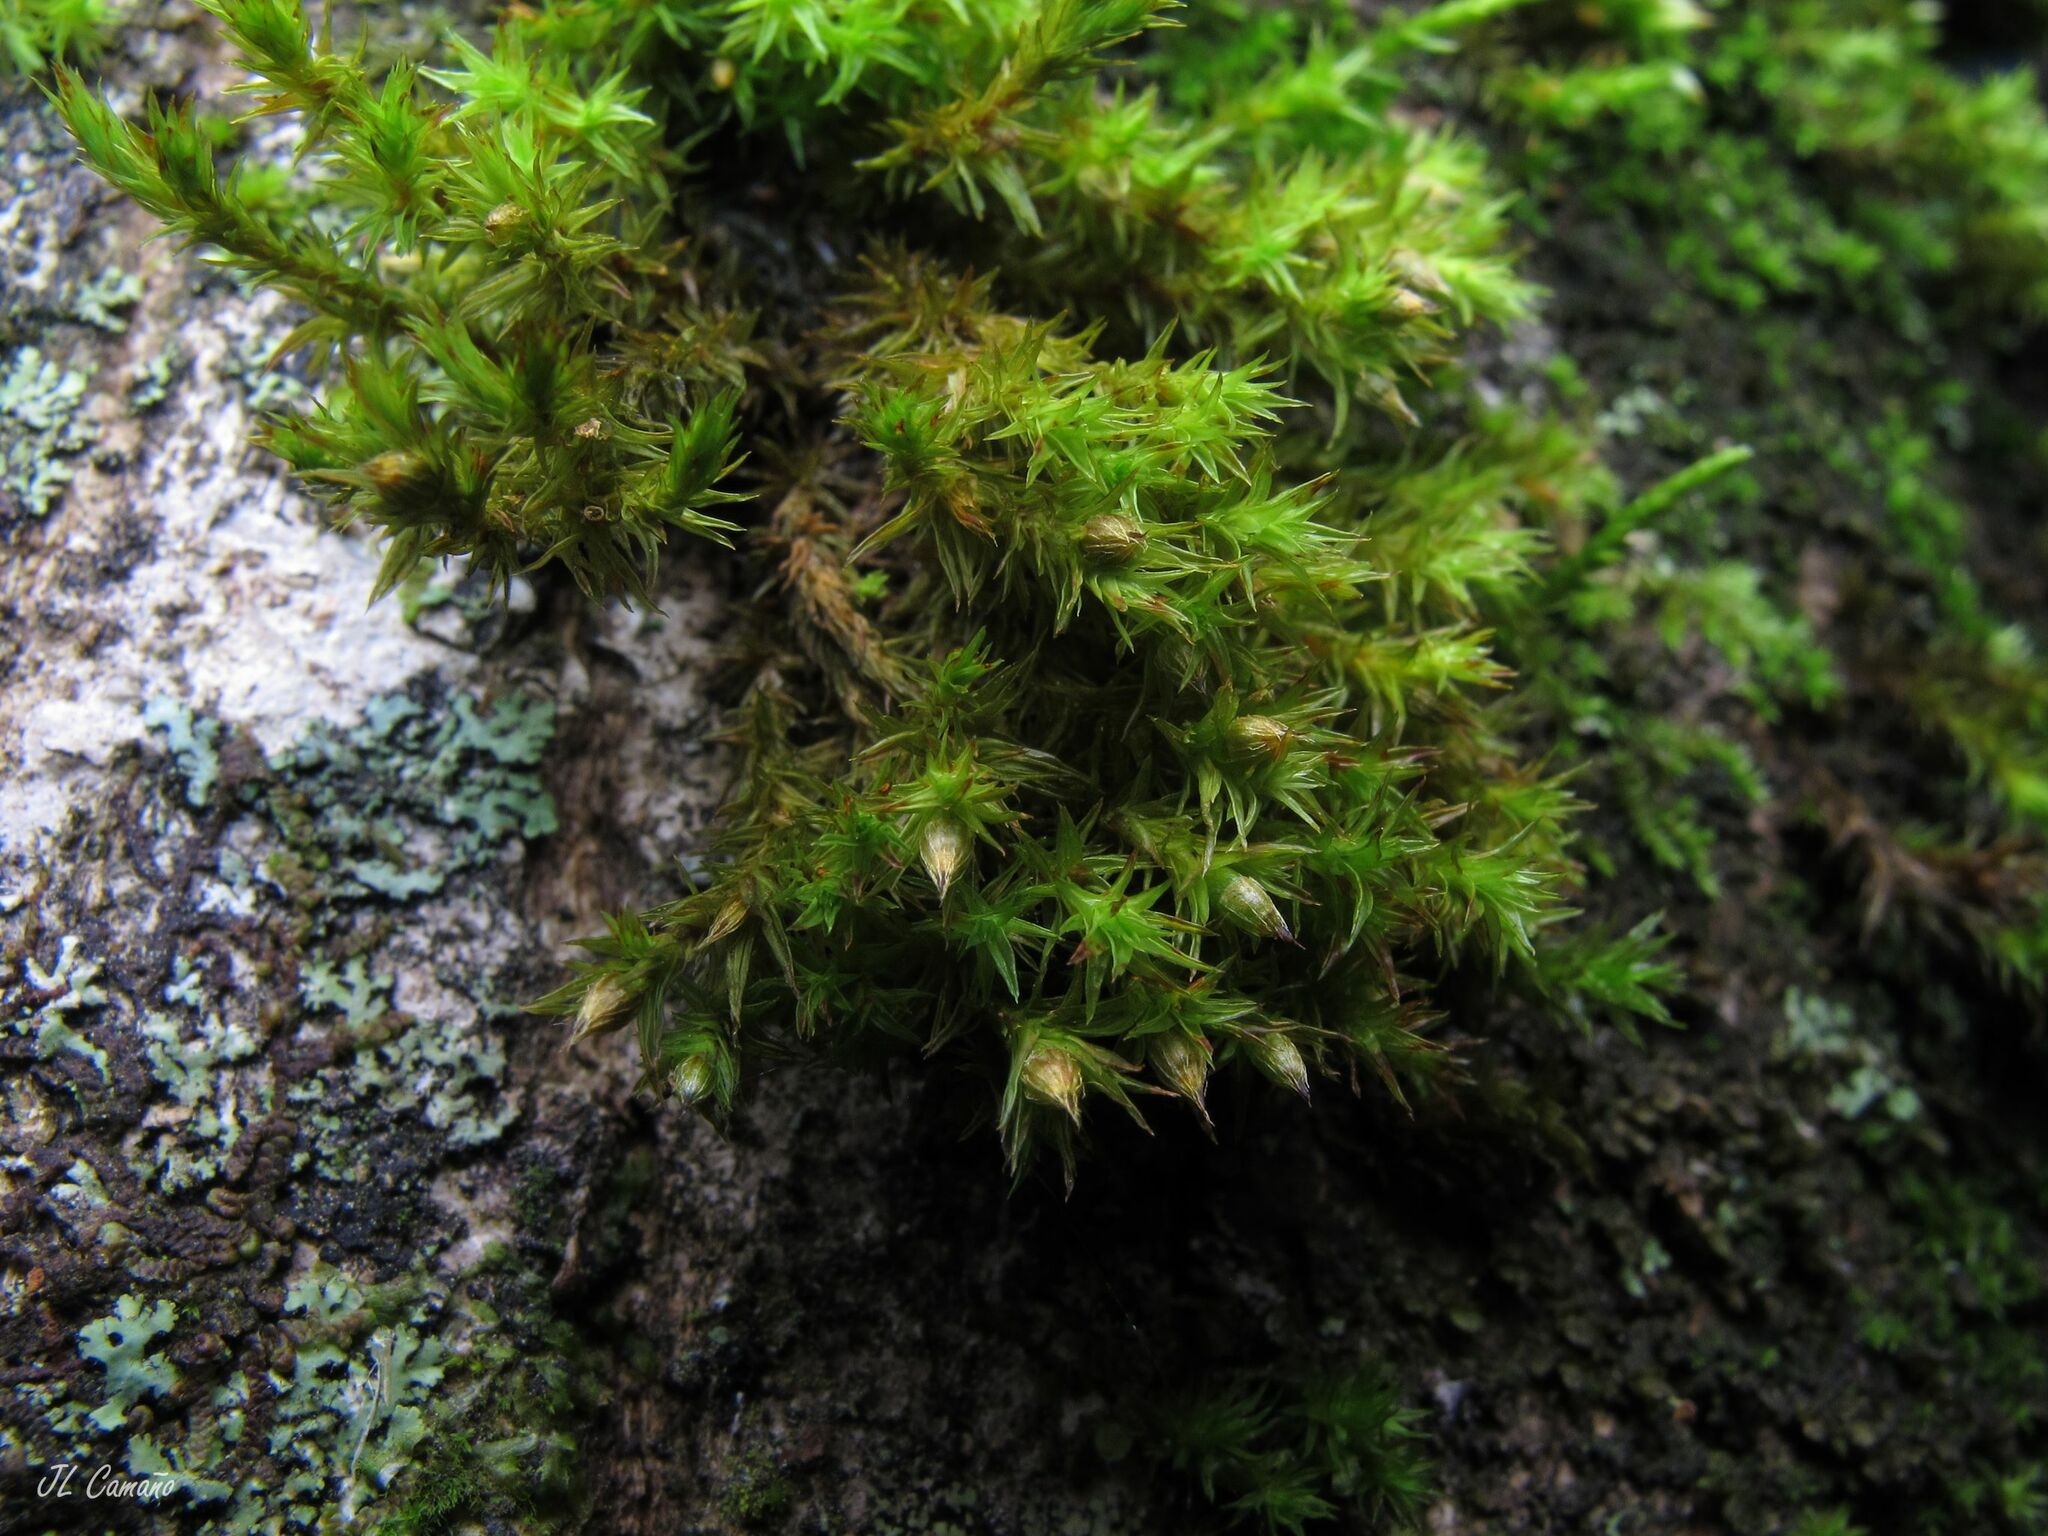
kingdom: Plantae
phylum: Bryophyta
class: Bryopsida
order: Orthotrichales
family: Orthotrichaceae
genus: Pulvigera
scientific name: Pulvigera lyellii
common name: Lyell's bristle-moss
